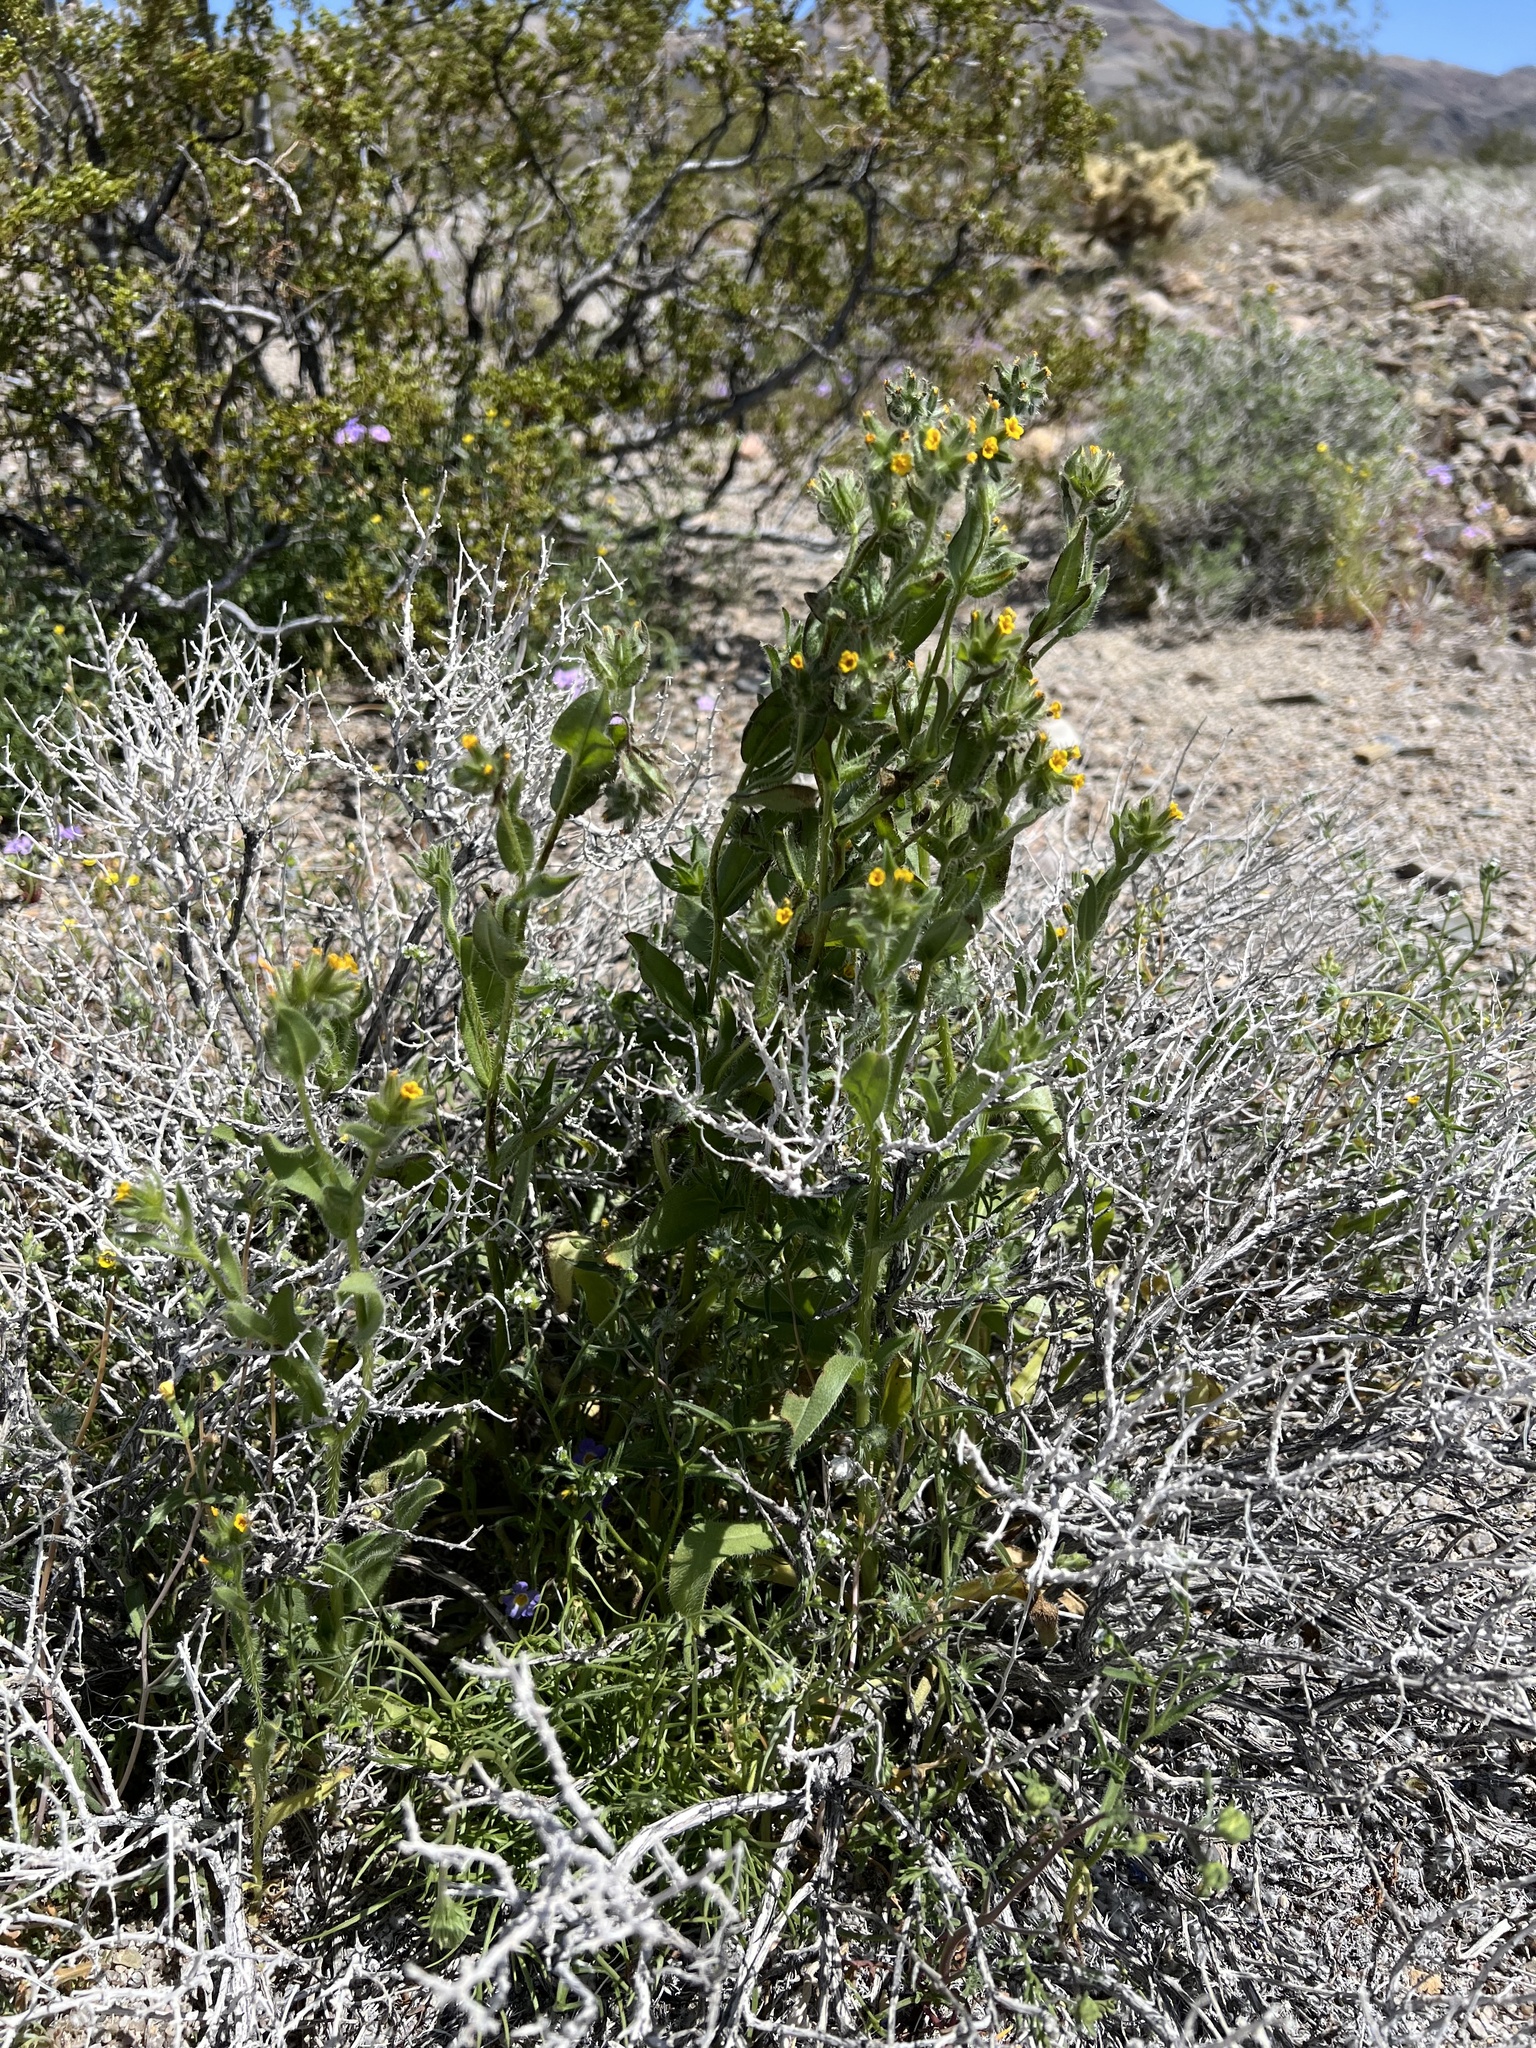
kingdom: Plantae
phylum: Tracheophyta
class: Magnoliopsida
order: Boraginales
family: Boraginaceae
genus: Amsinckia
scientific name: Amsinckia tessellata
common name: Tessellate fiddleneck
